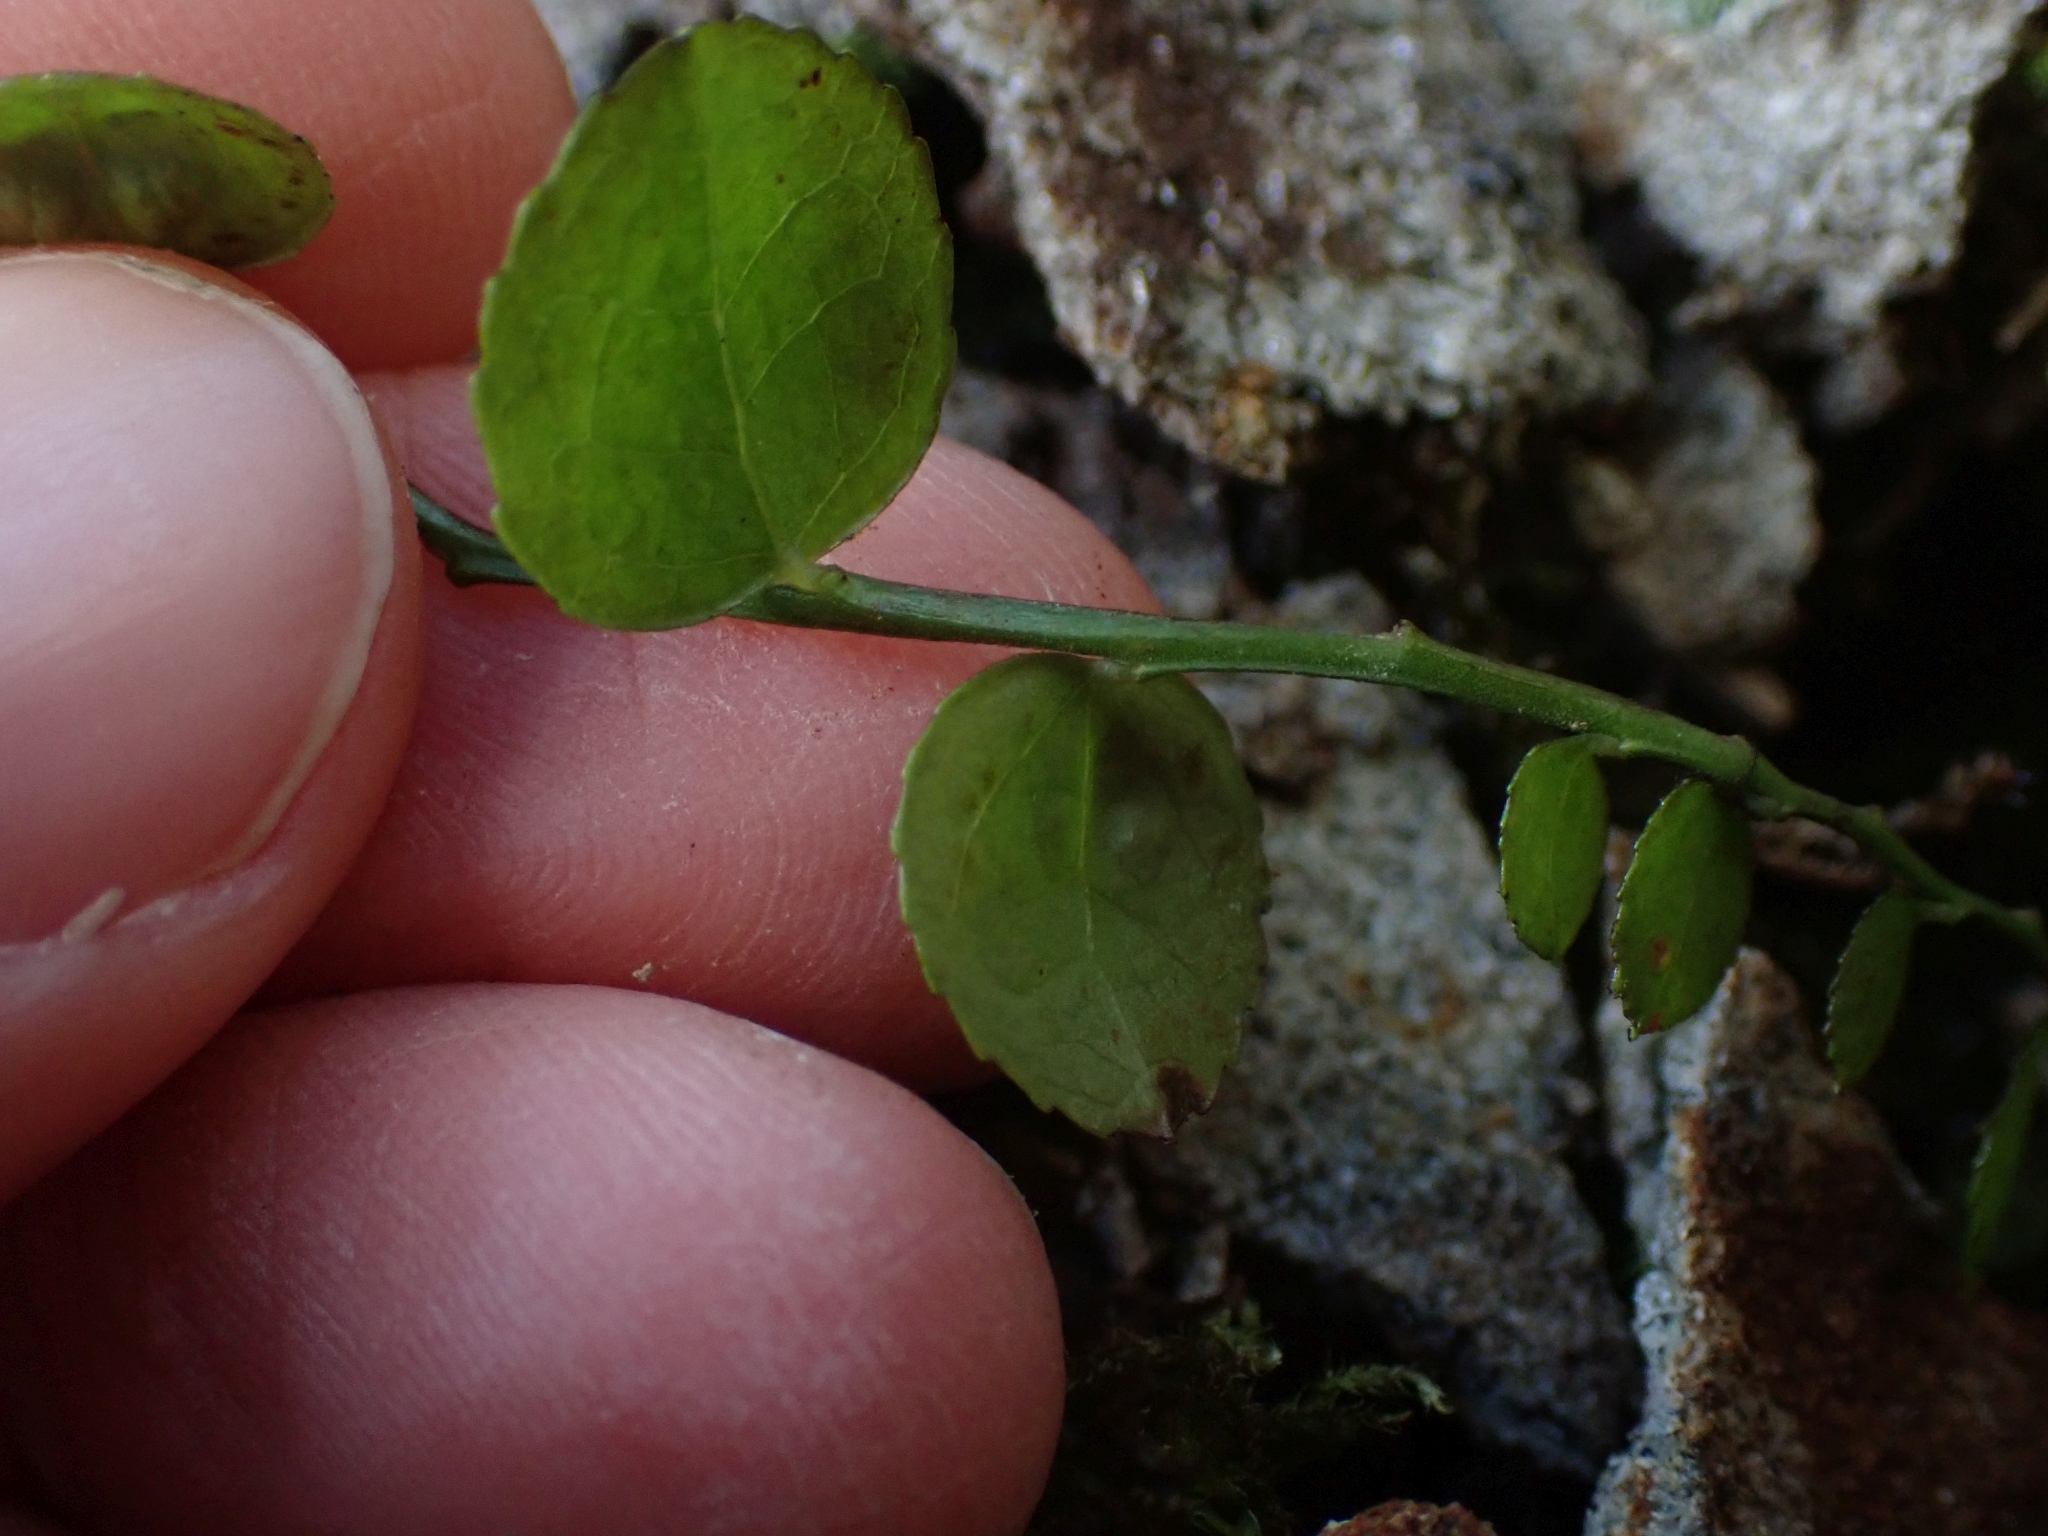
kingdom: Plantae
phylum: Tracheophyta
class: Magnoliopsida
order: Ericales
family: Ericaceae
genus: Vaccinium
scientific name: Vaccinium parvifolium
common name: Red-huckleberry
